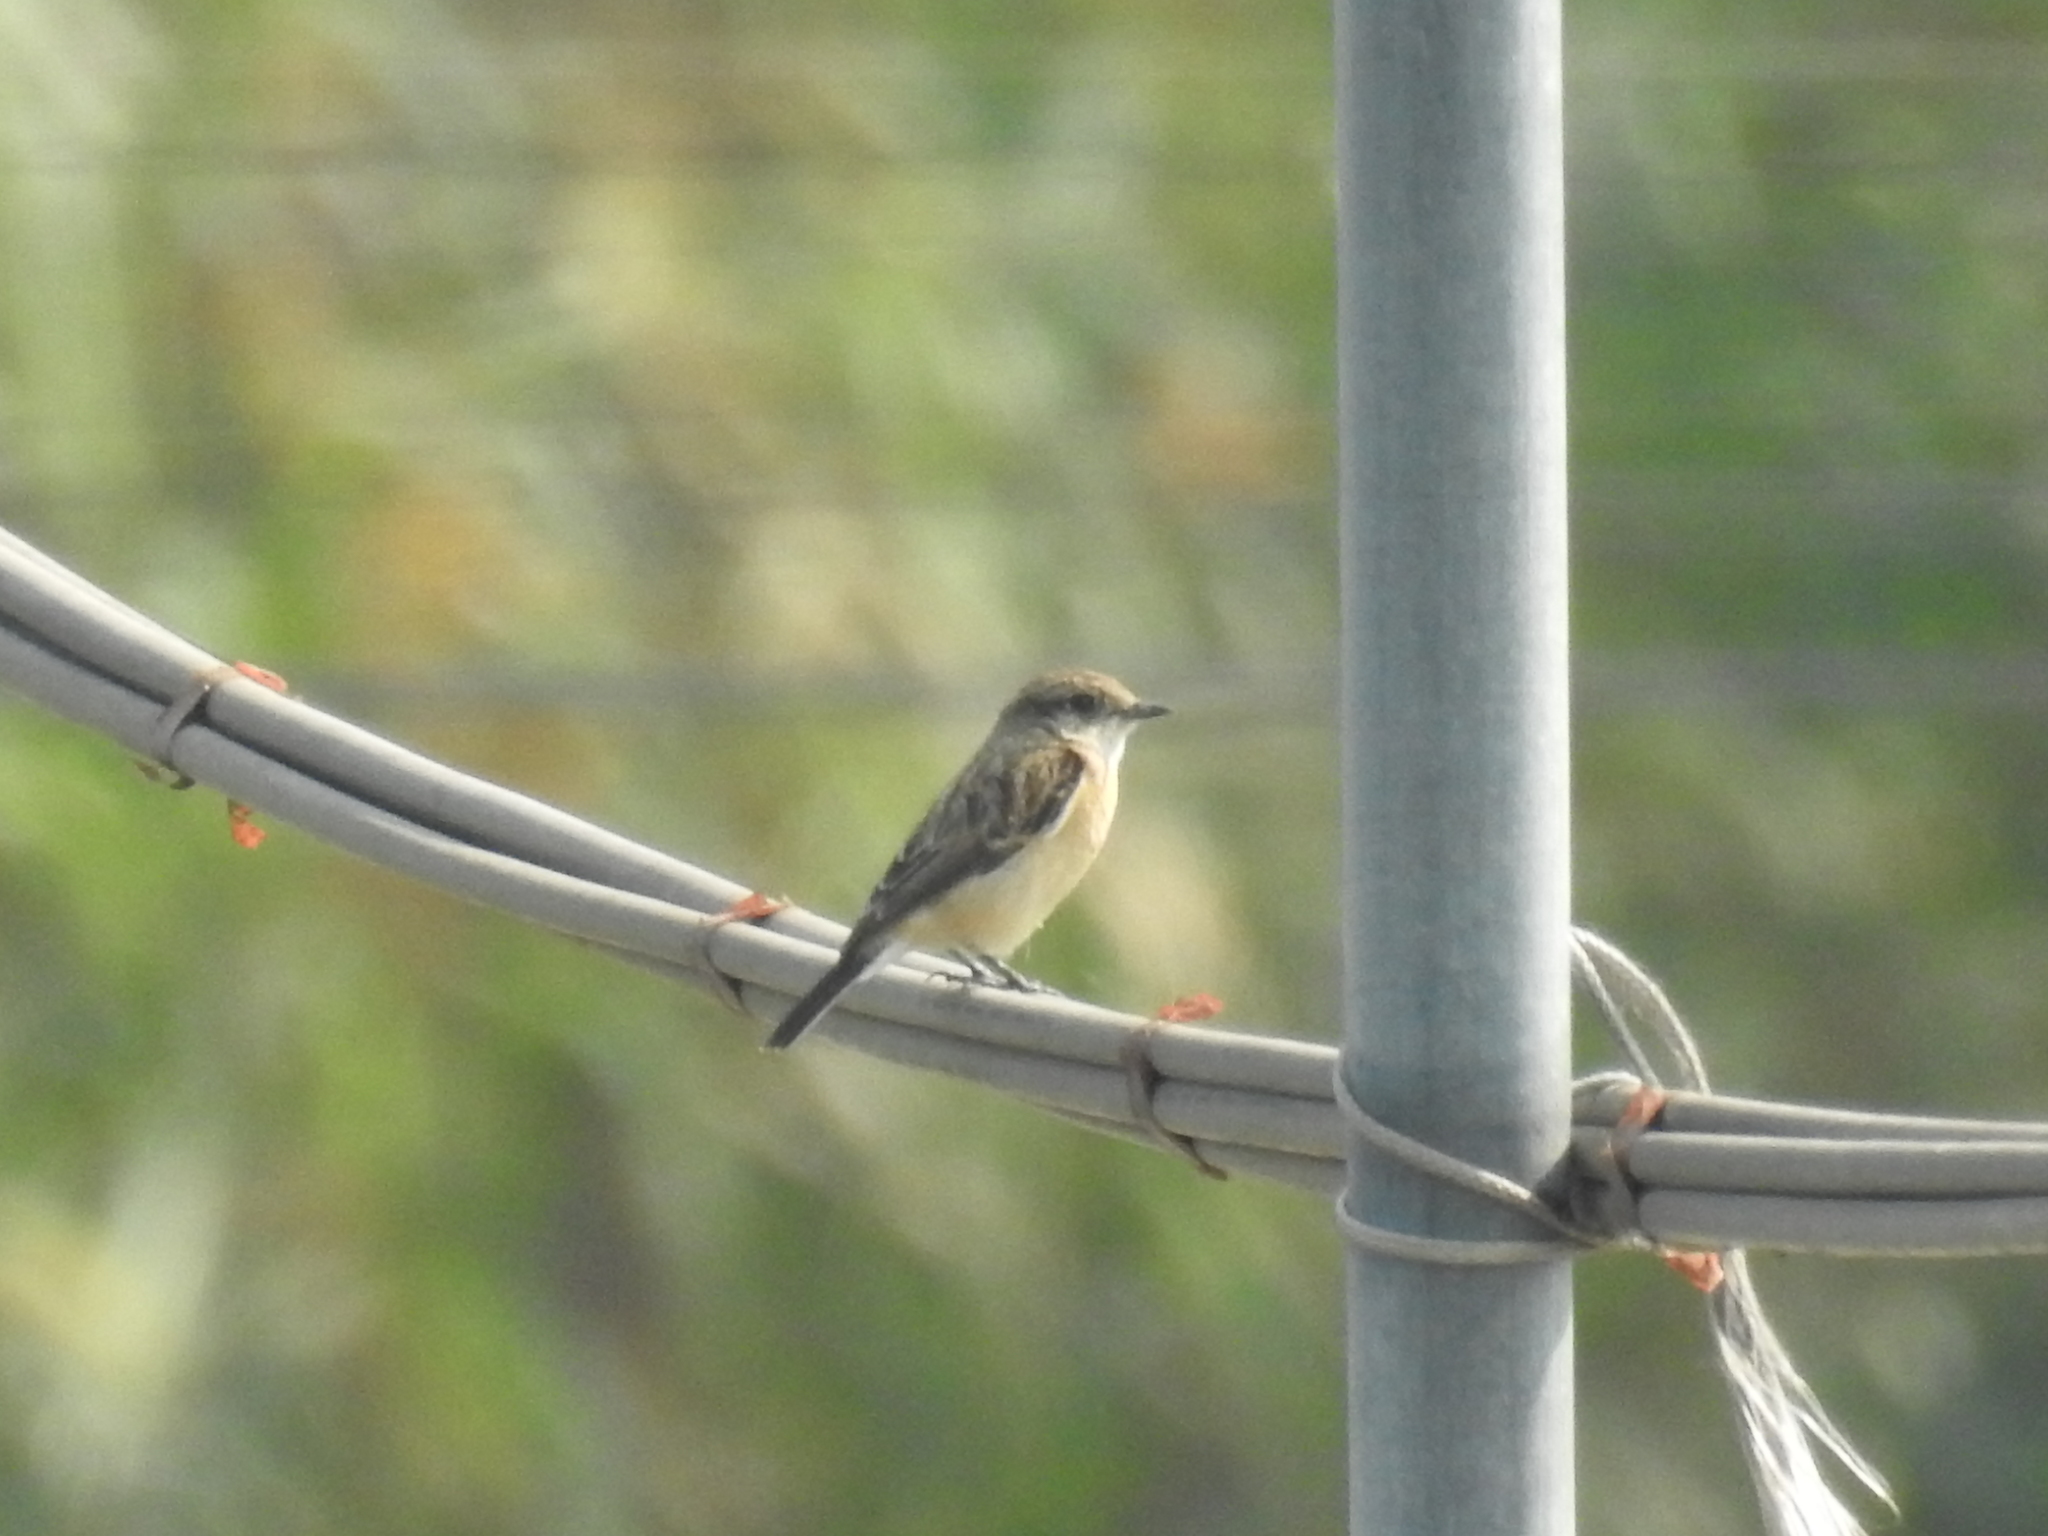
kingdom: Animalia
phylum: Chordata
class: Aves
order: Passeriformes
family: Muscicapidae
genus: Saxicola
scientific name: Saxicola stejnegeri
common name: Stejneger's stonechat
